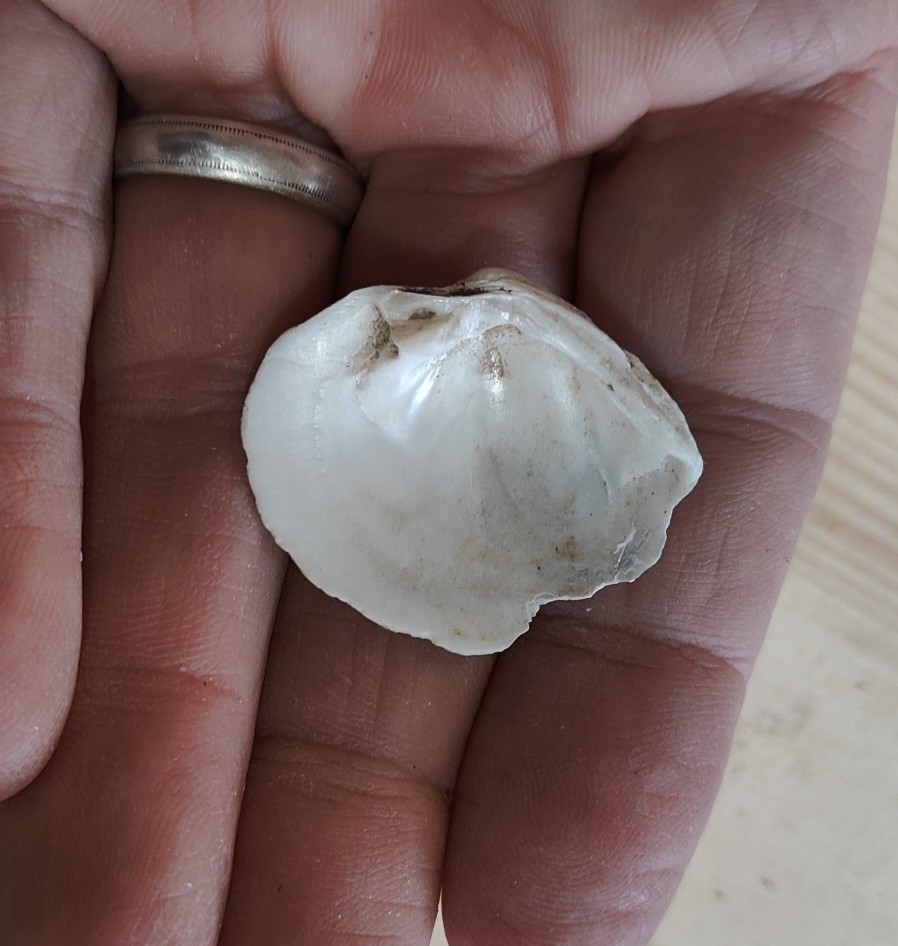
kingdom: Animalia
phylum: Mollusca
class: Bivalvia
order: Unionida
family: Unionidae
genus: Fusconaia
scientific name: Fusconaia flava
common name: Wabash pigtoe
